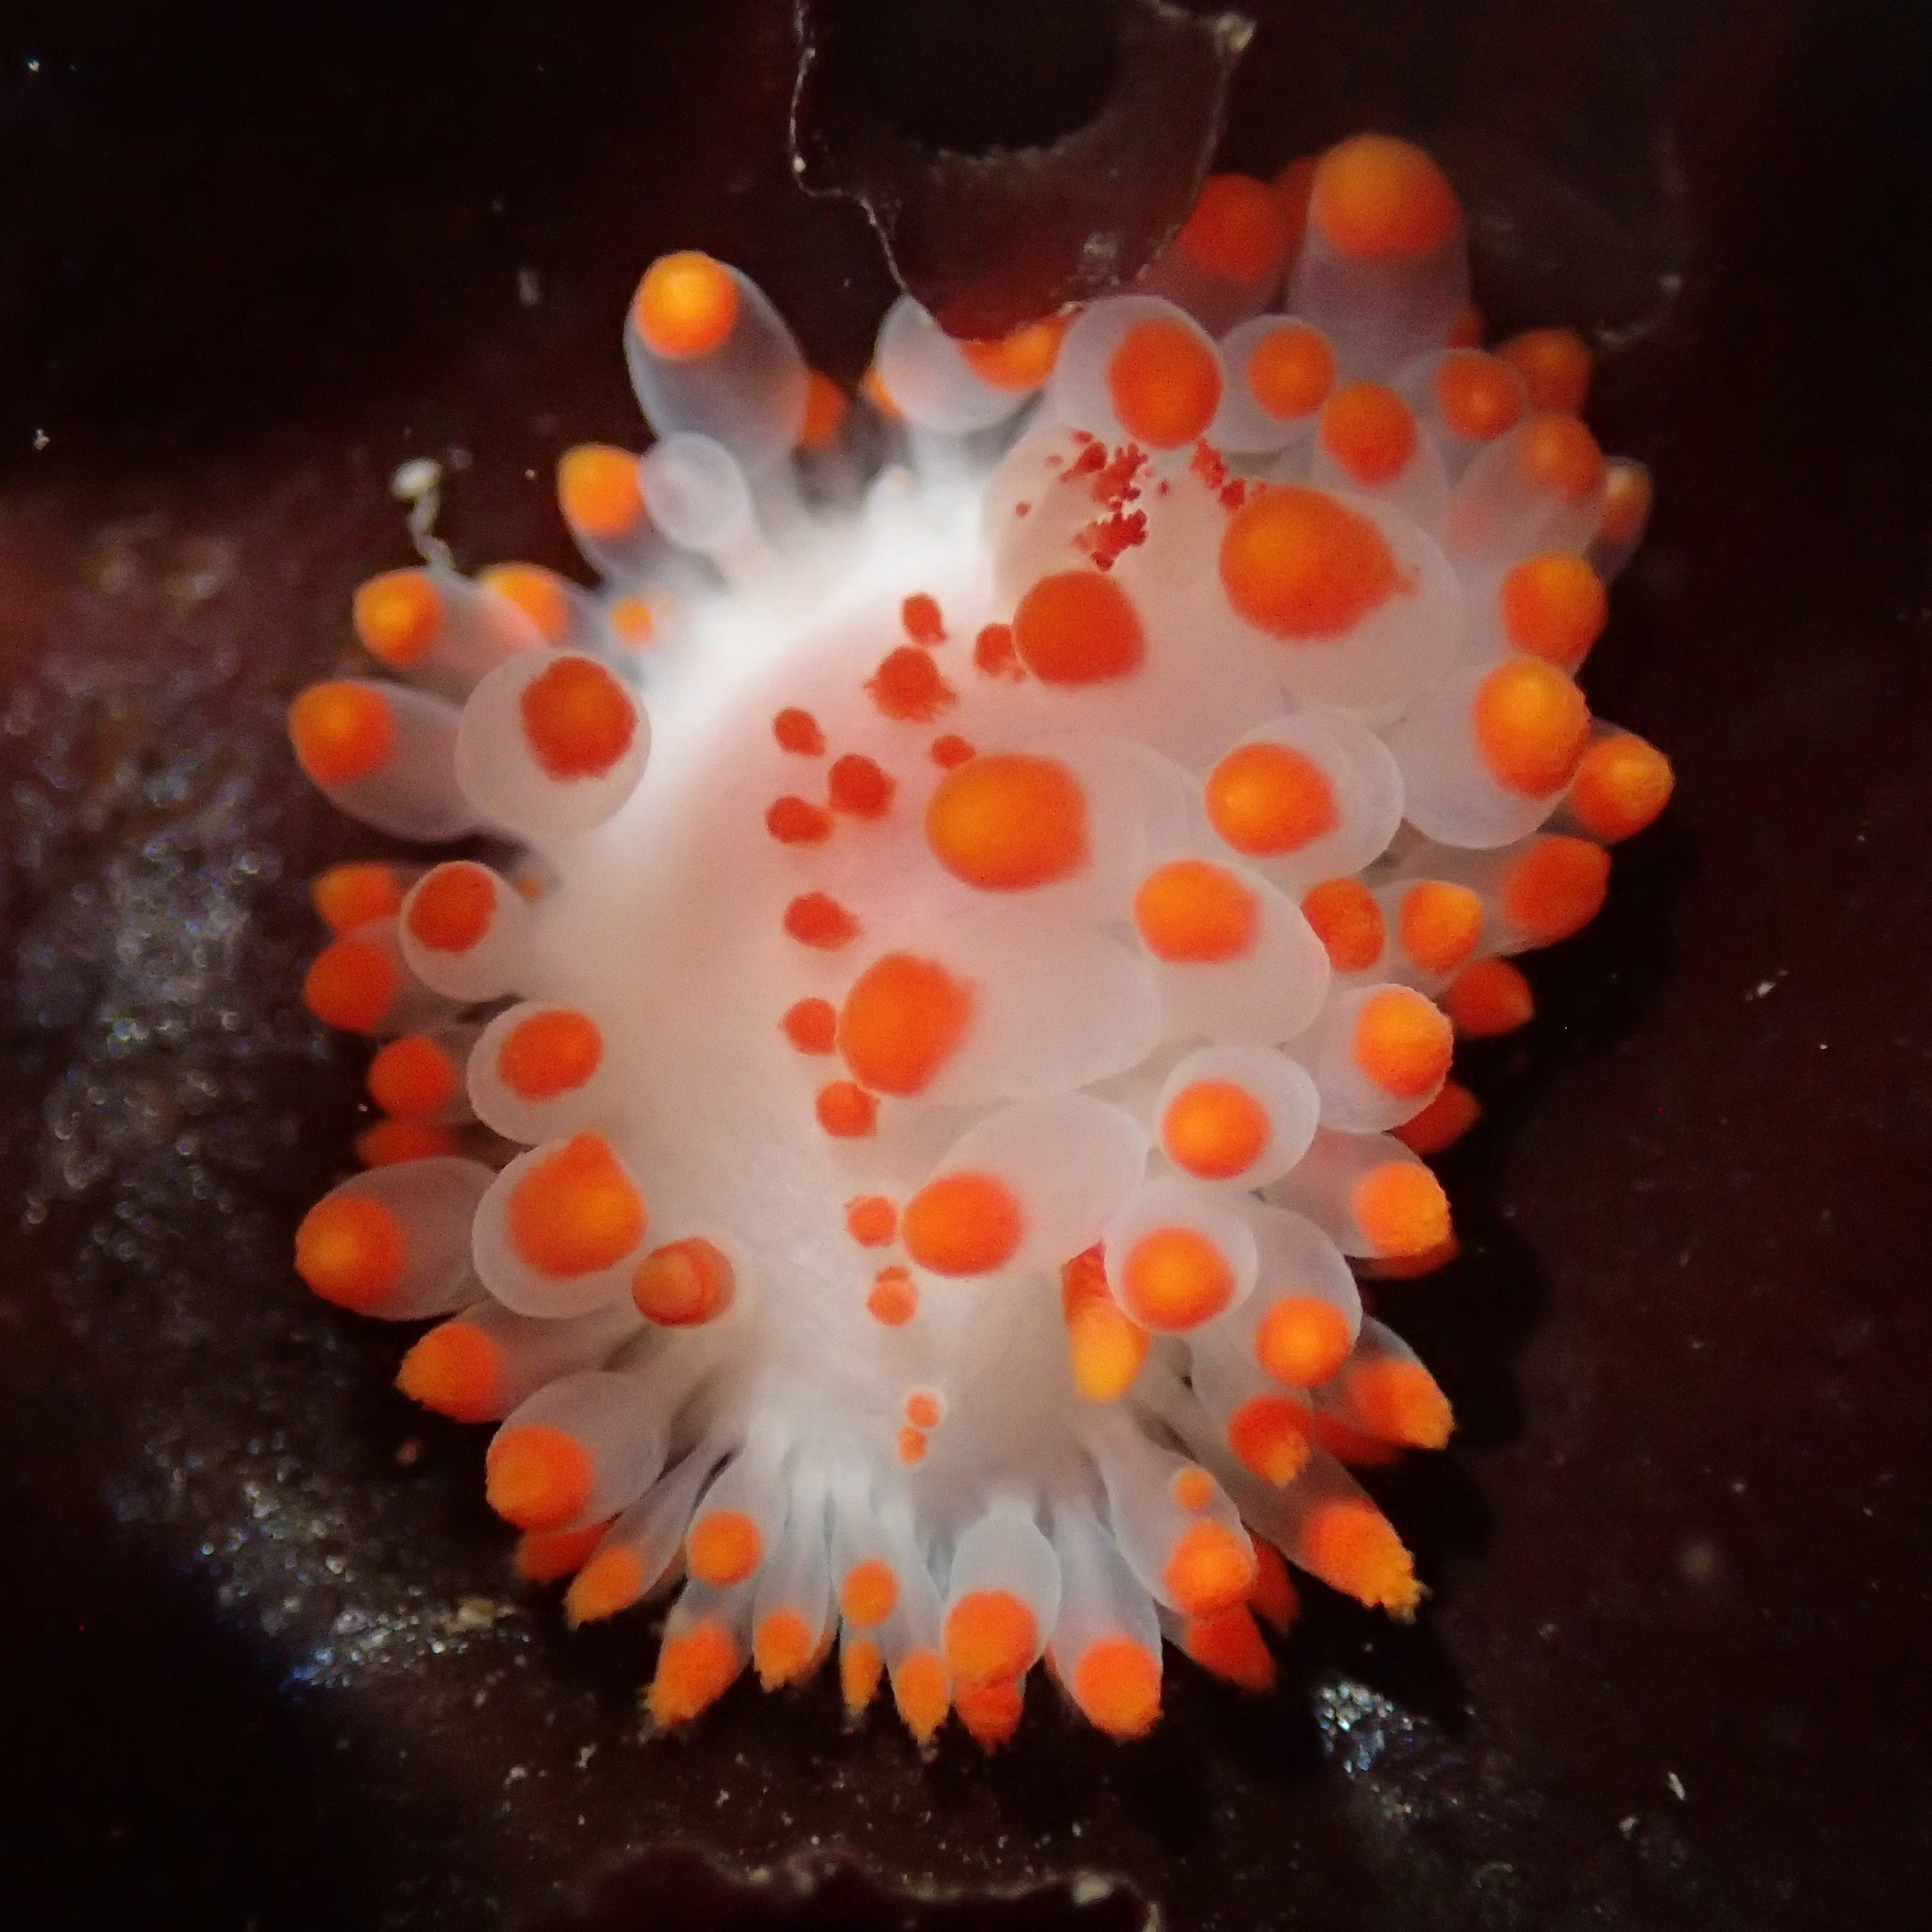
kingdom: Animalia
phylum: Mollusca
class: Gastropoda
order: Nudibranchia
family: Polyceridae
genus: Limacia
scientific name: Limacia mcdonaldi
